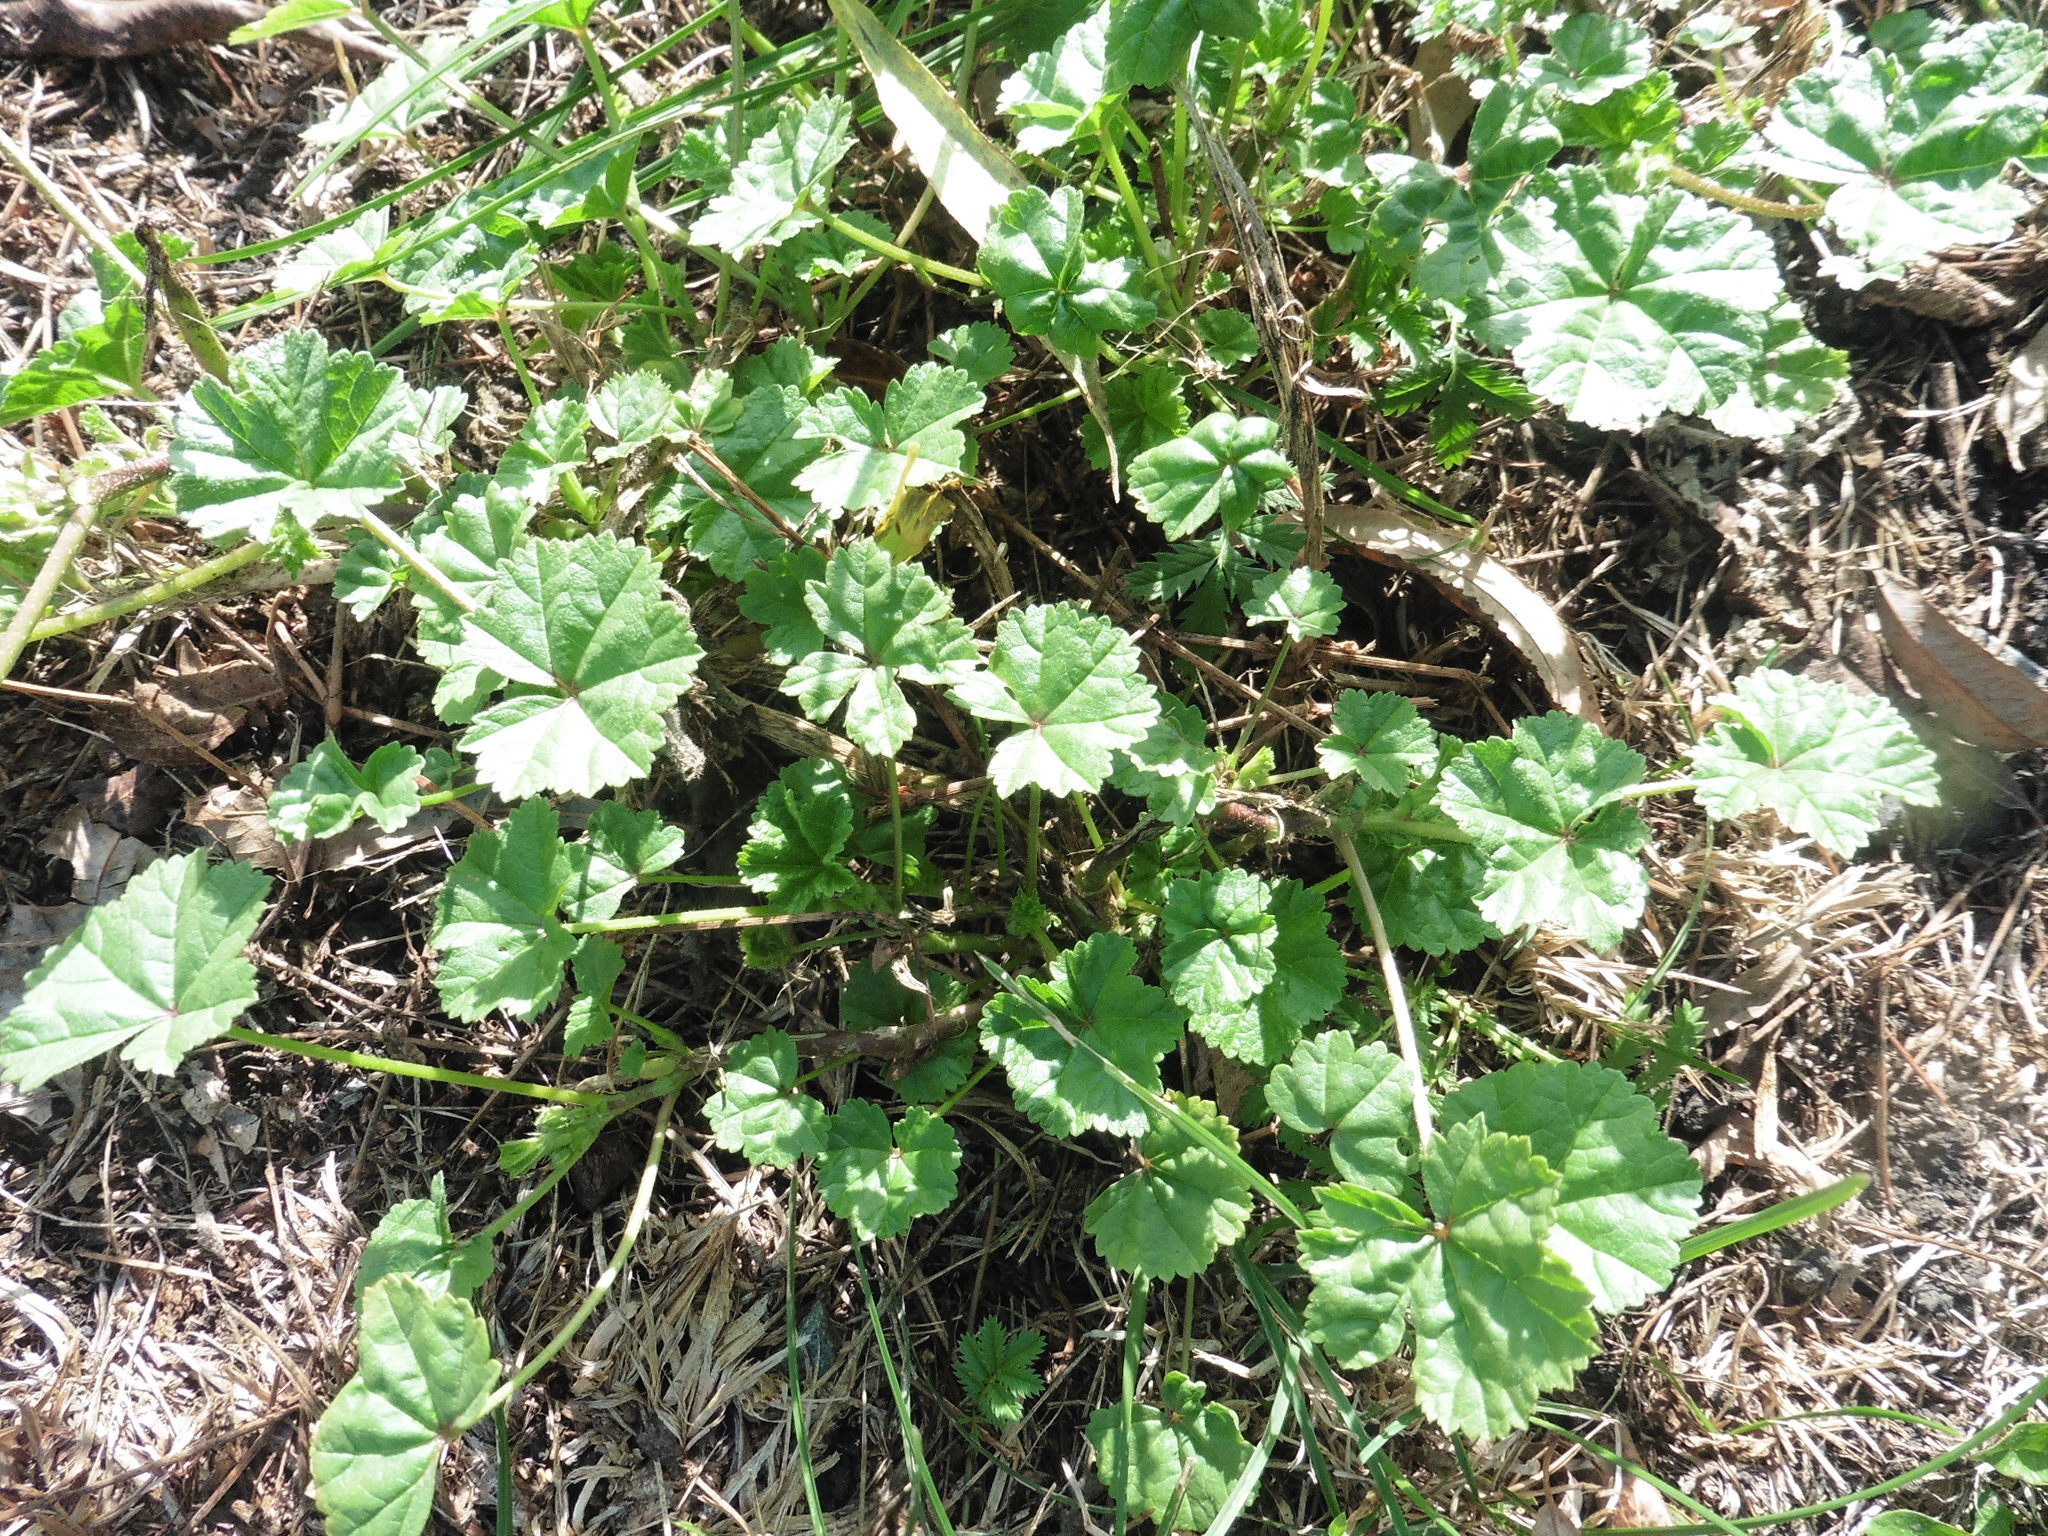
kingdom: Plantae
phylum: Tracheophyta
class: Magnoliopsida
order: Malvales
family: Malvaceae
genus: Malva
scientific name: Malva pusilla
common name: Small mallow
